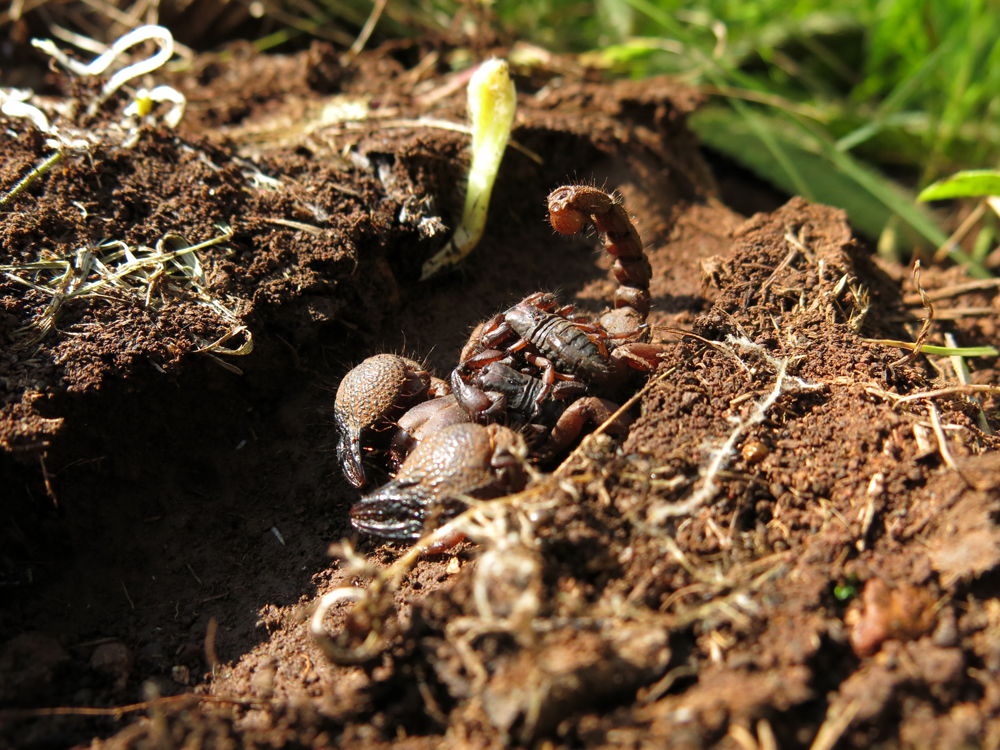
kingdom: Animalia
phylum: Arthropoda
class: Arachnida
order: Scorpiones
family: Scorpionidae
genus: Opistophthalmus
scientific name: Opistophthalmus pugnax
